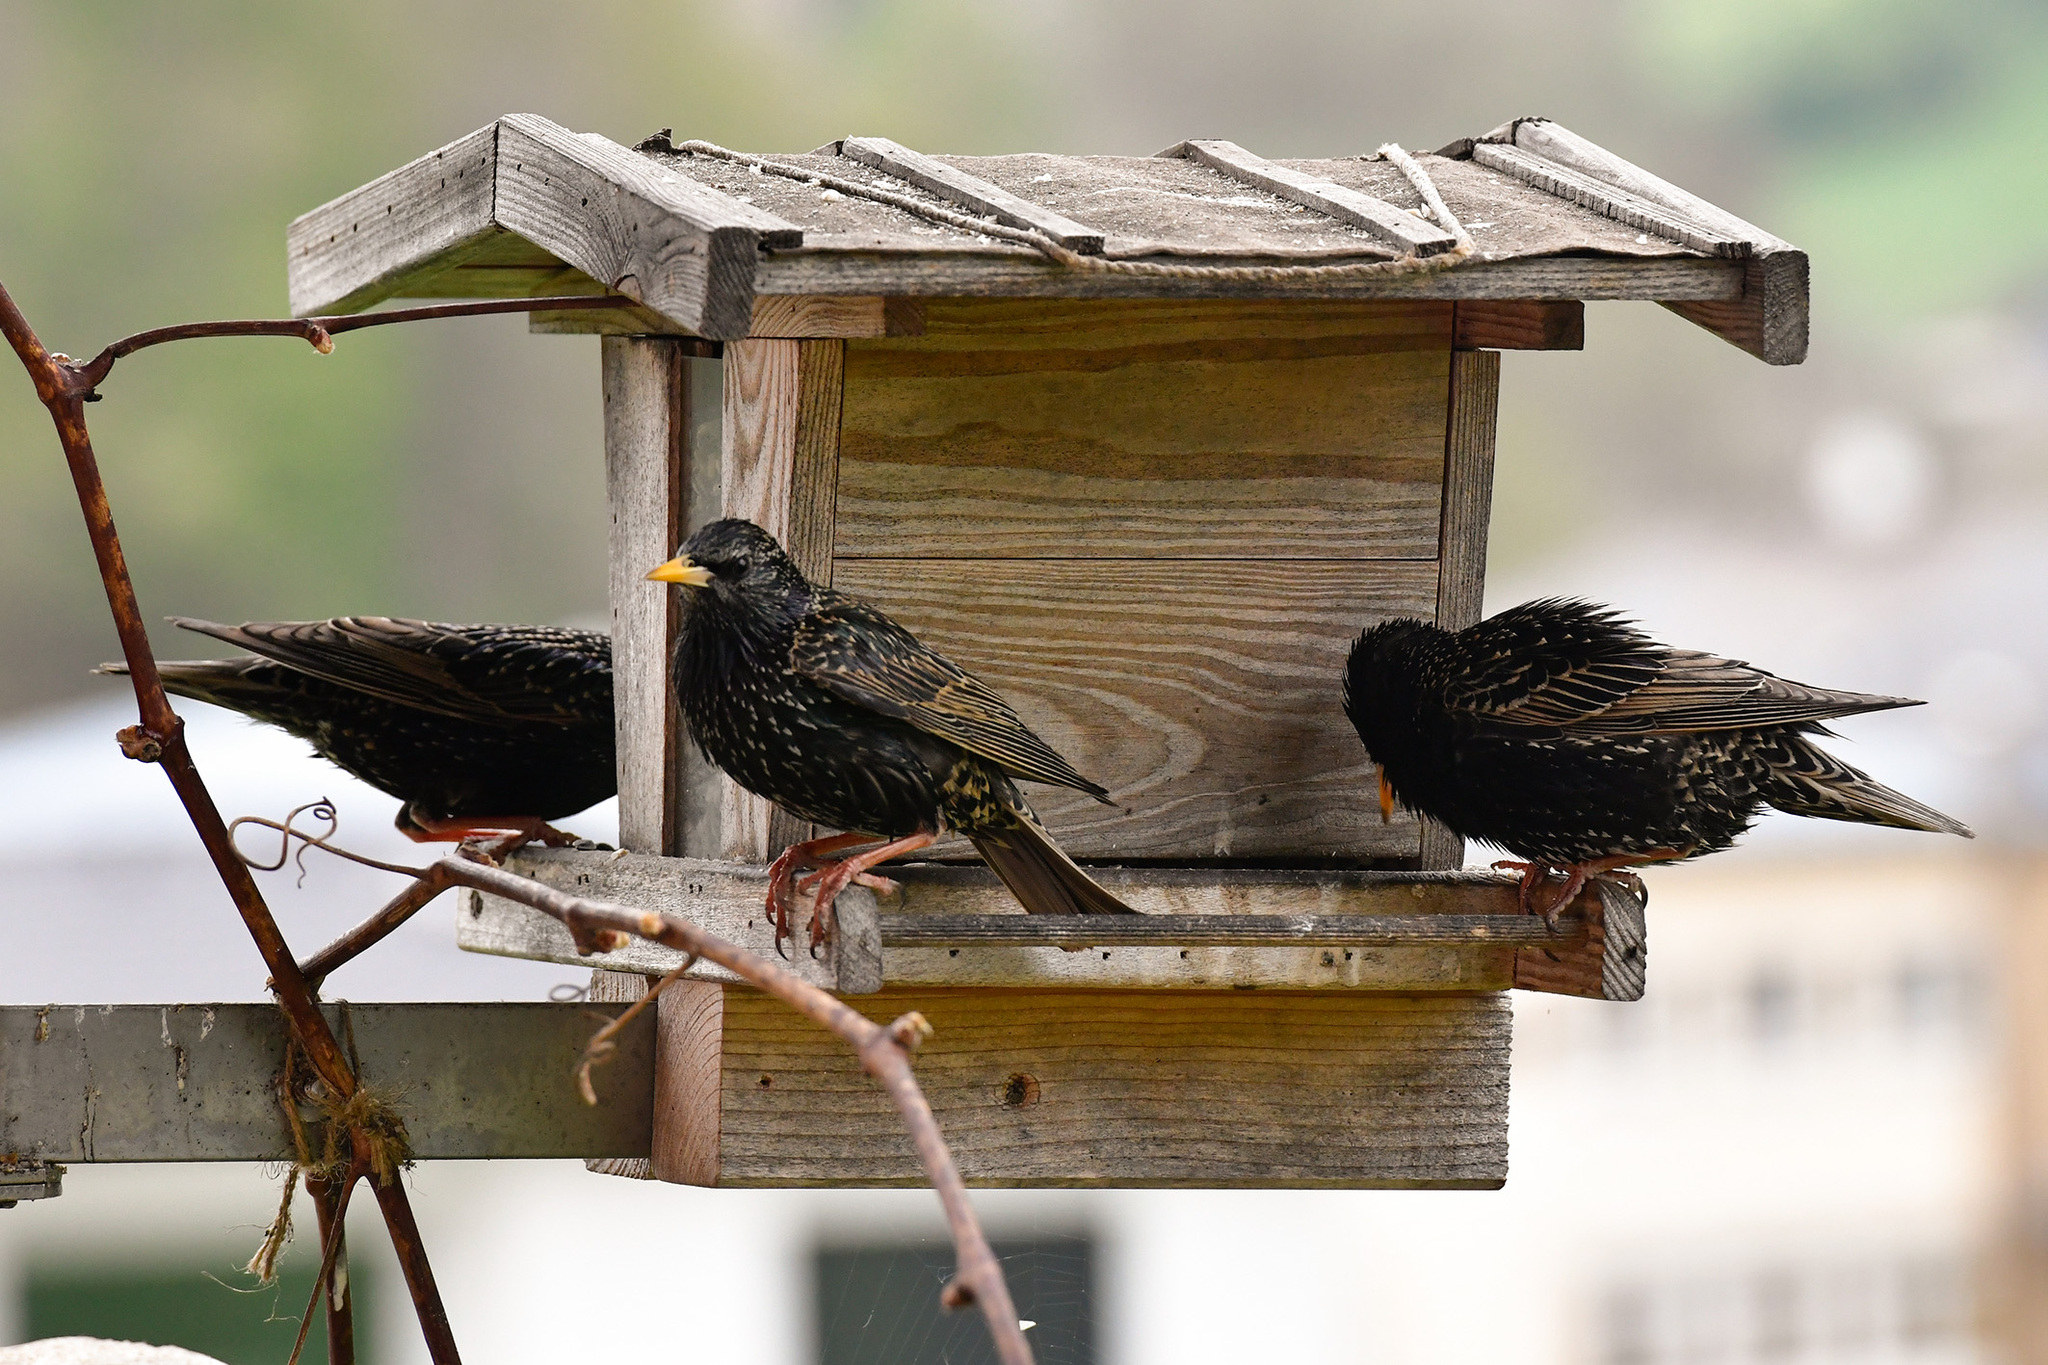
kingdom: Animalia
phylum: Chordata
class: Aves
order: Passeriformes
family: Sturnidae
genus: Sturnus
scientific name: Sturnus vulgaris
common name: Common starling
